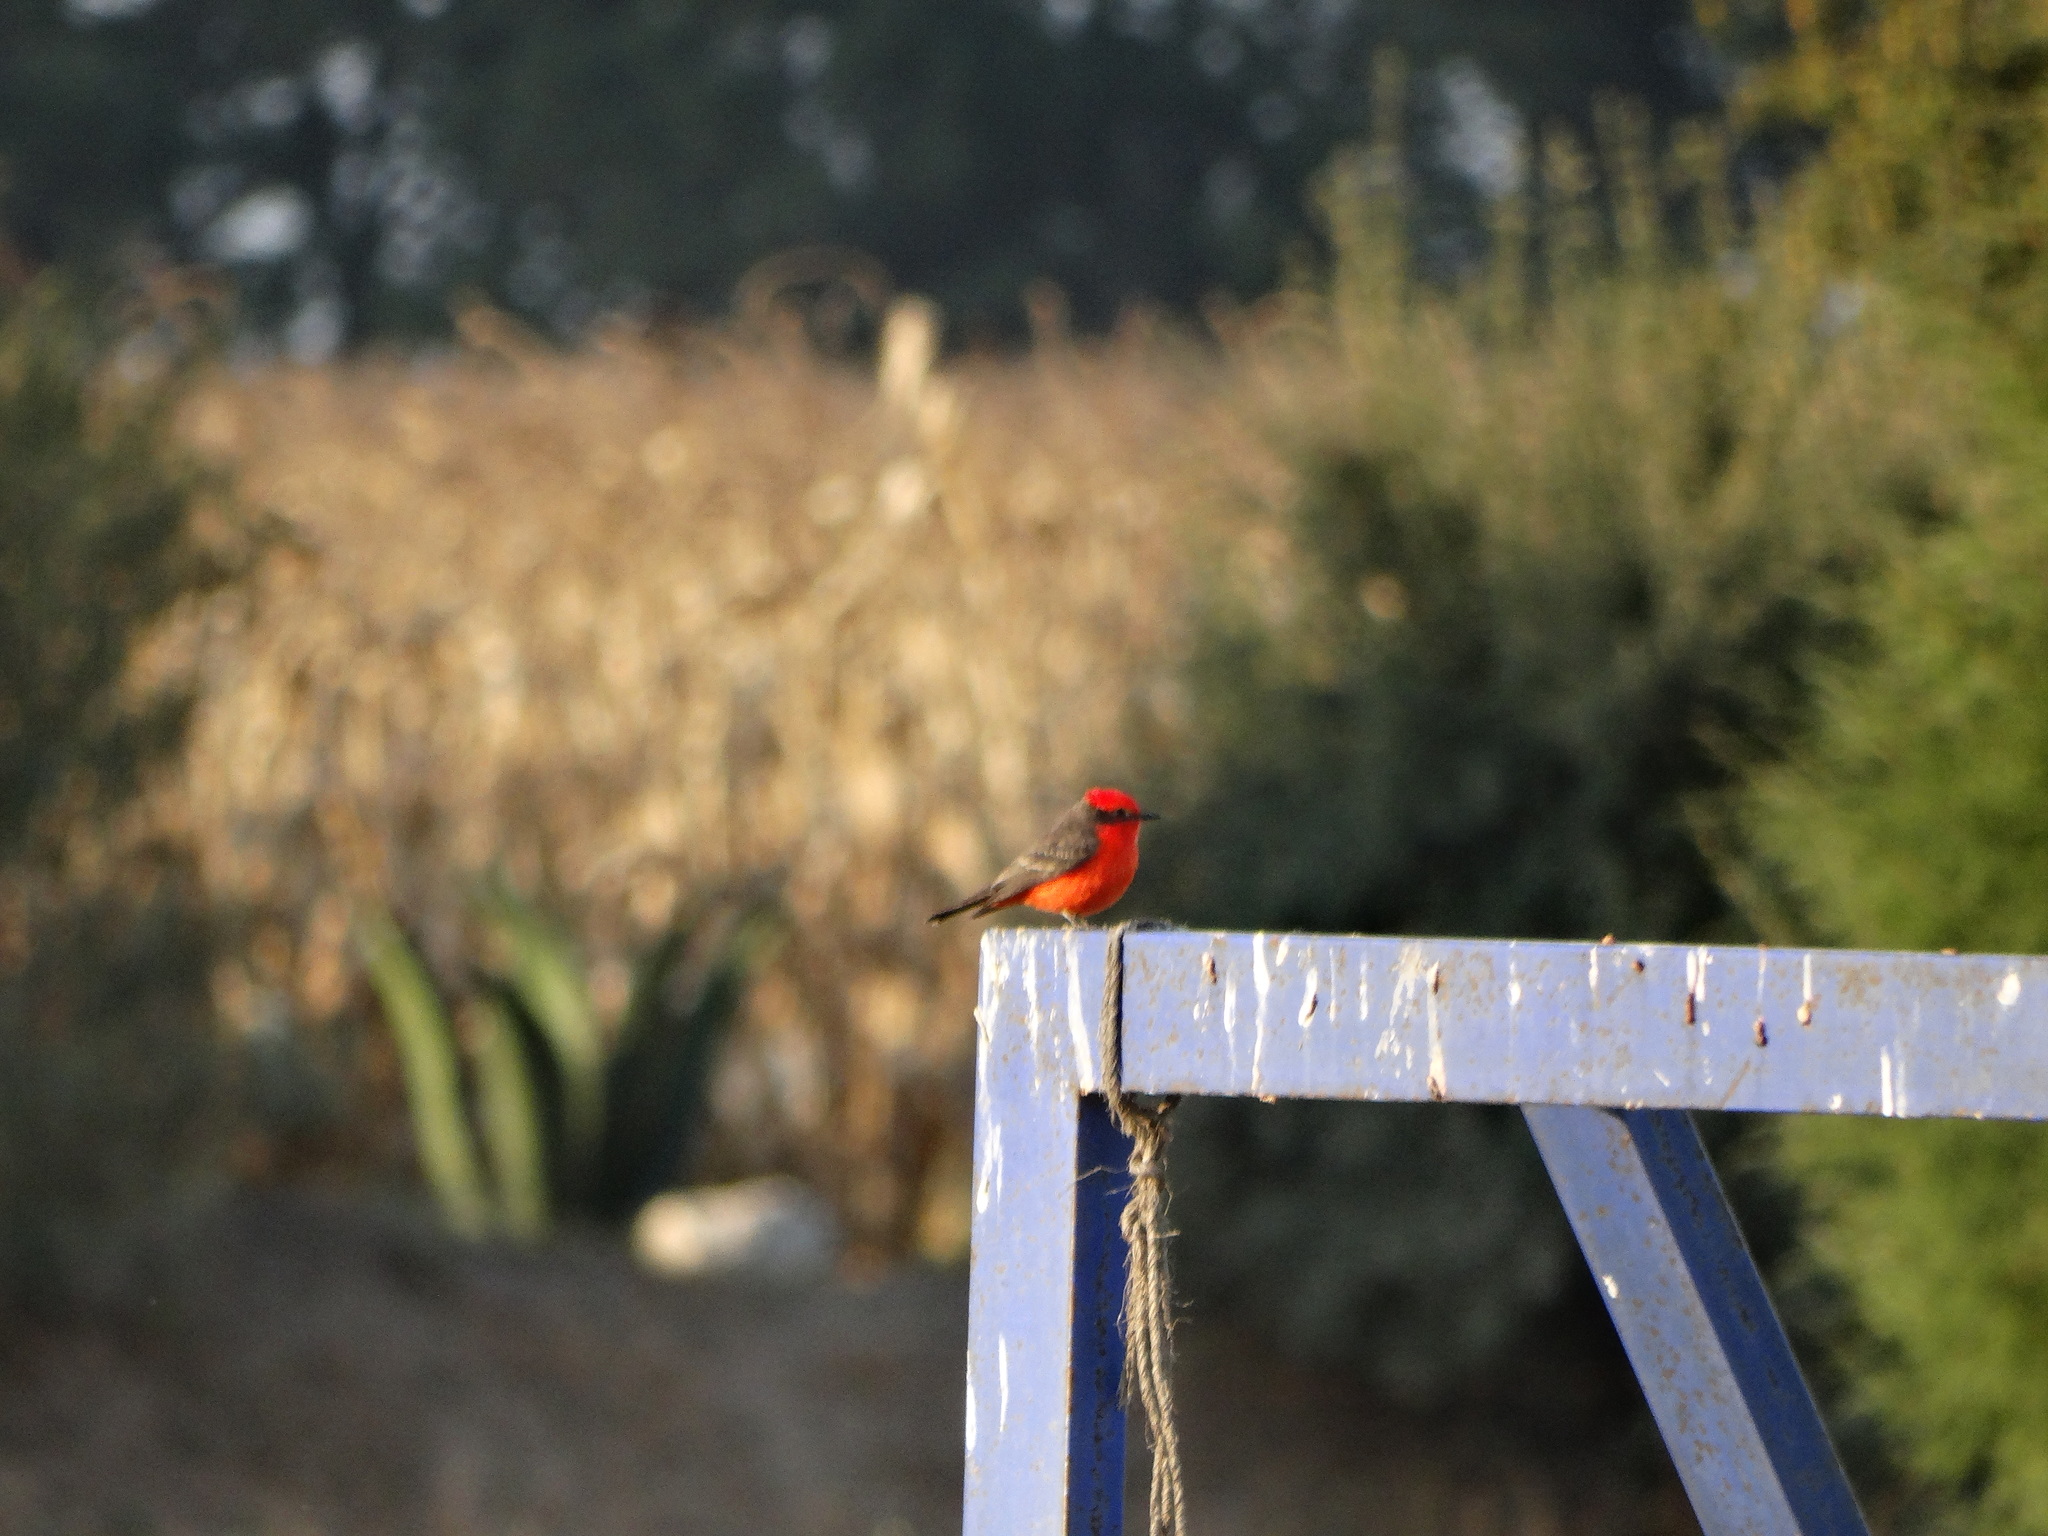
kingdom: Animalia
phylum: Chordata
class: Aves
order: Passeriformes
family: Tyrannidae
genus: Pyrocephalus
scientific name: Pyrocephalus rubinus
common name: Vermilion flycatcher
